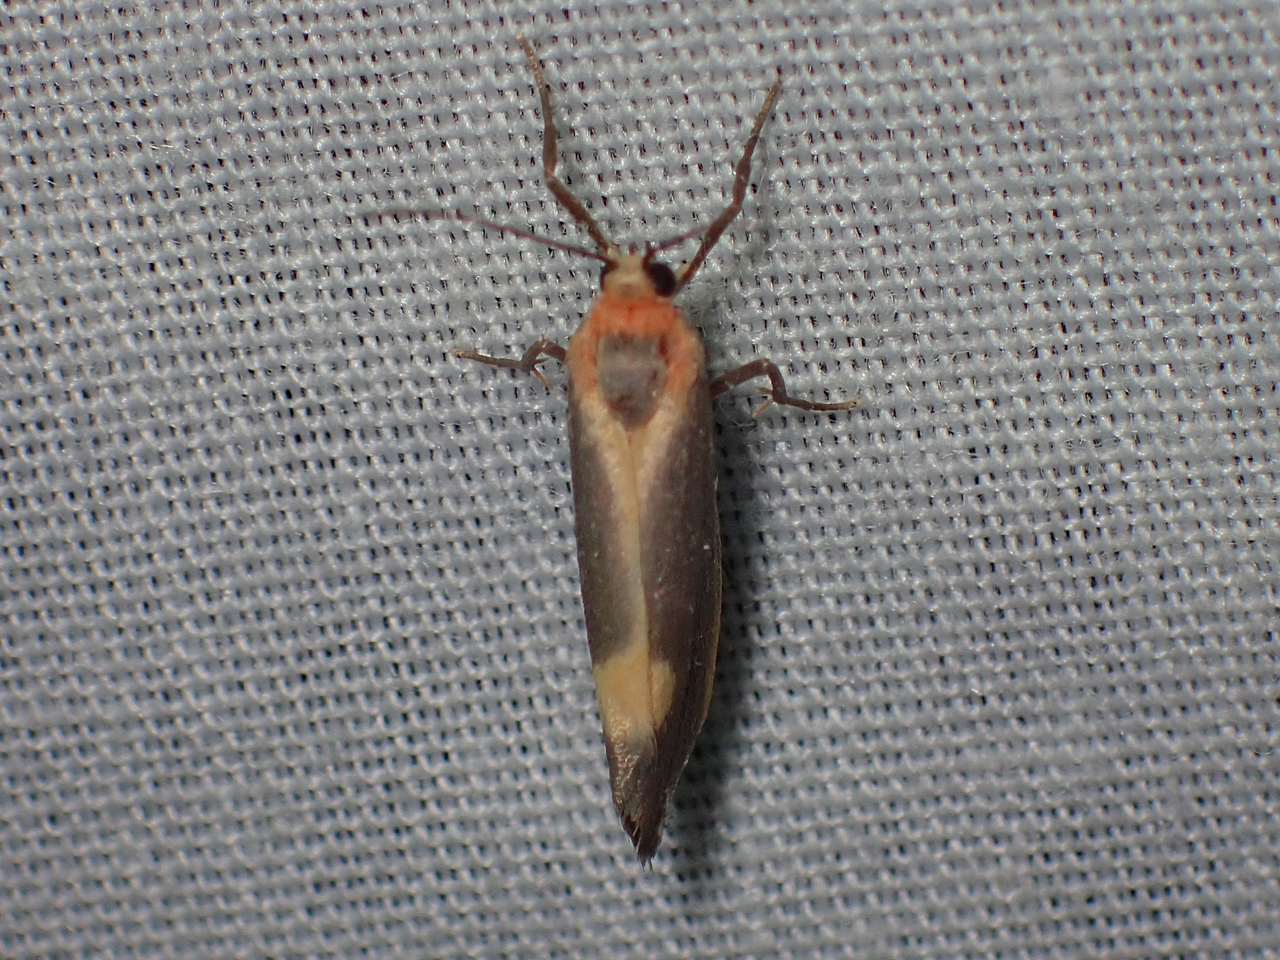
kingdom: Animalia
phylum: Arthropoda
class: Insecta
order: Lepidoptera
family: Erebidae
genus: Cisthene
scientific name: Cisthene plumbea
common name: Lead colored lichen moth
